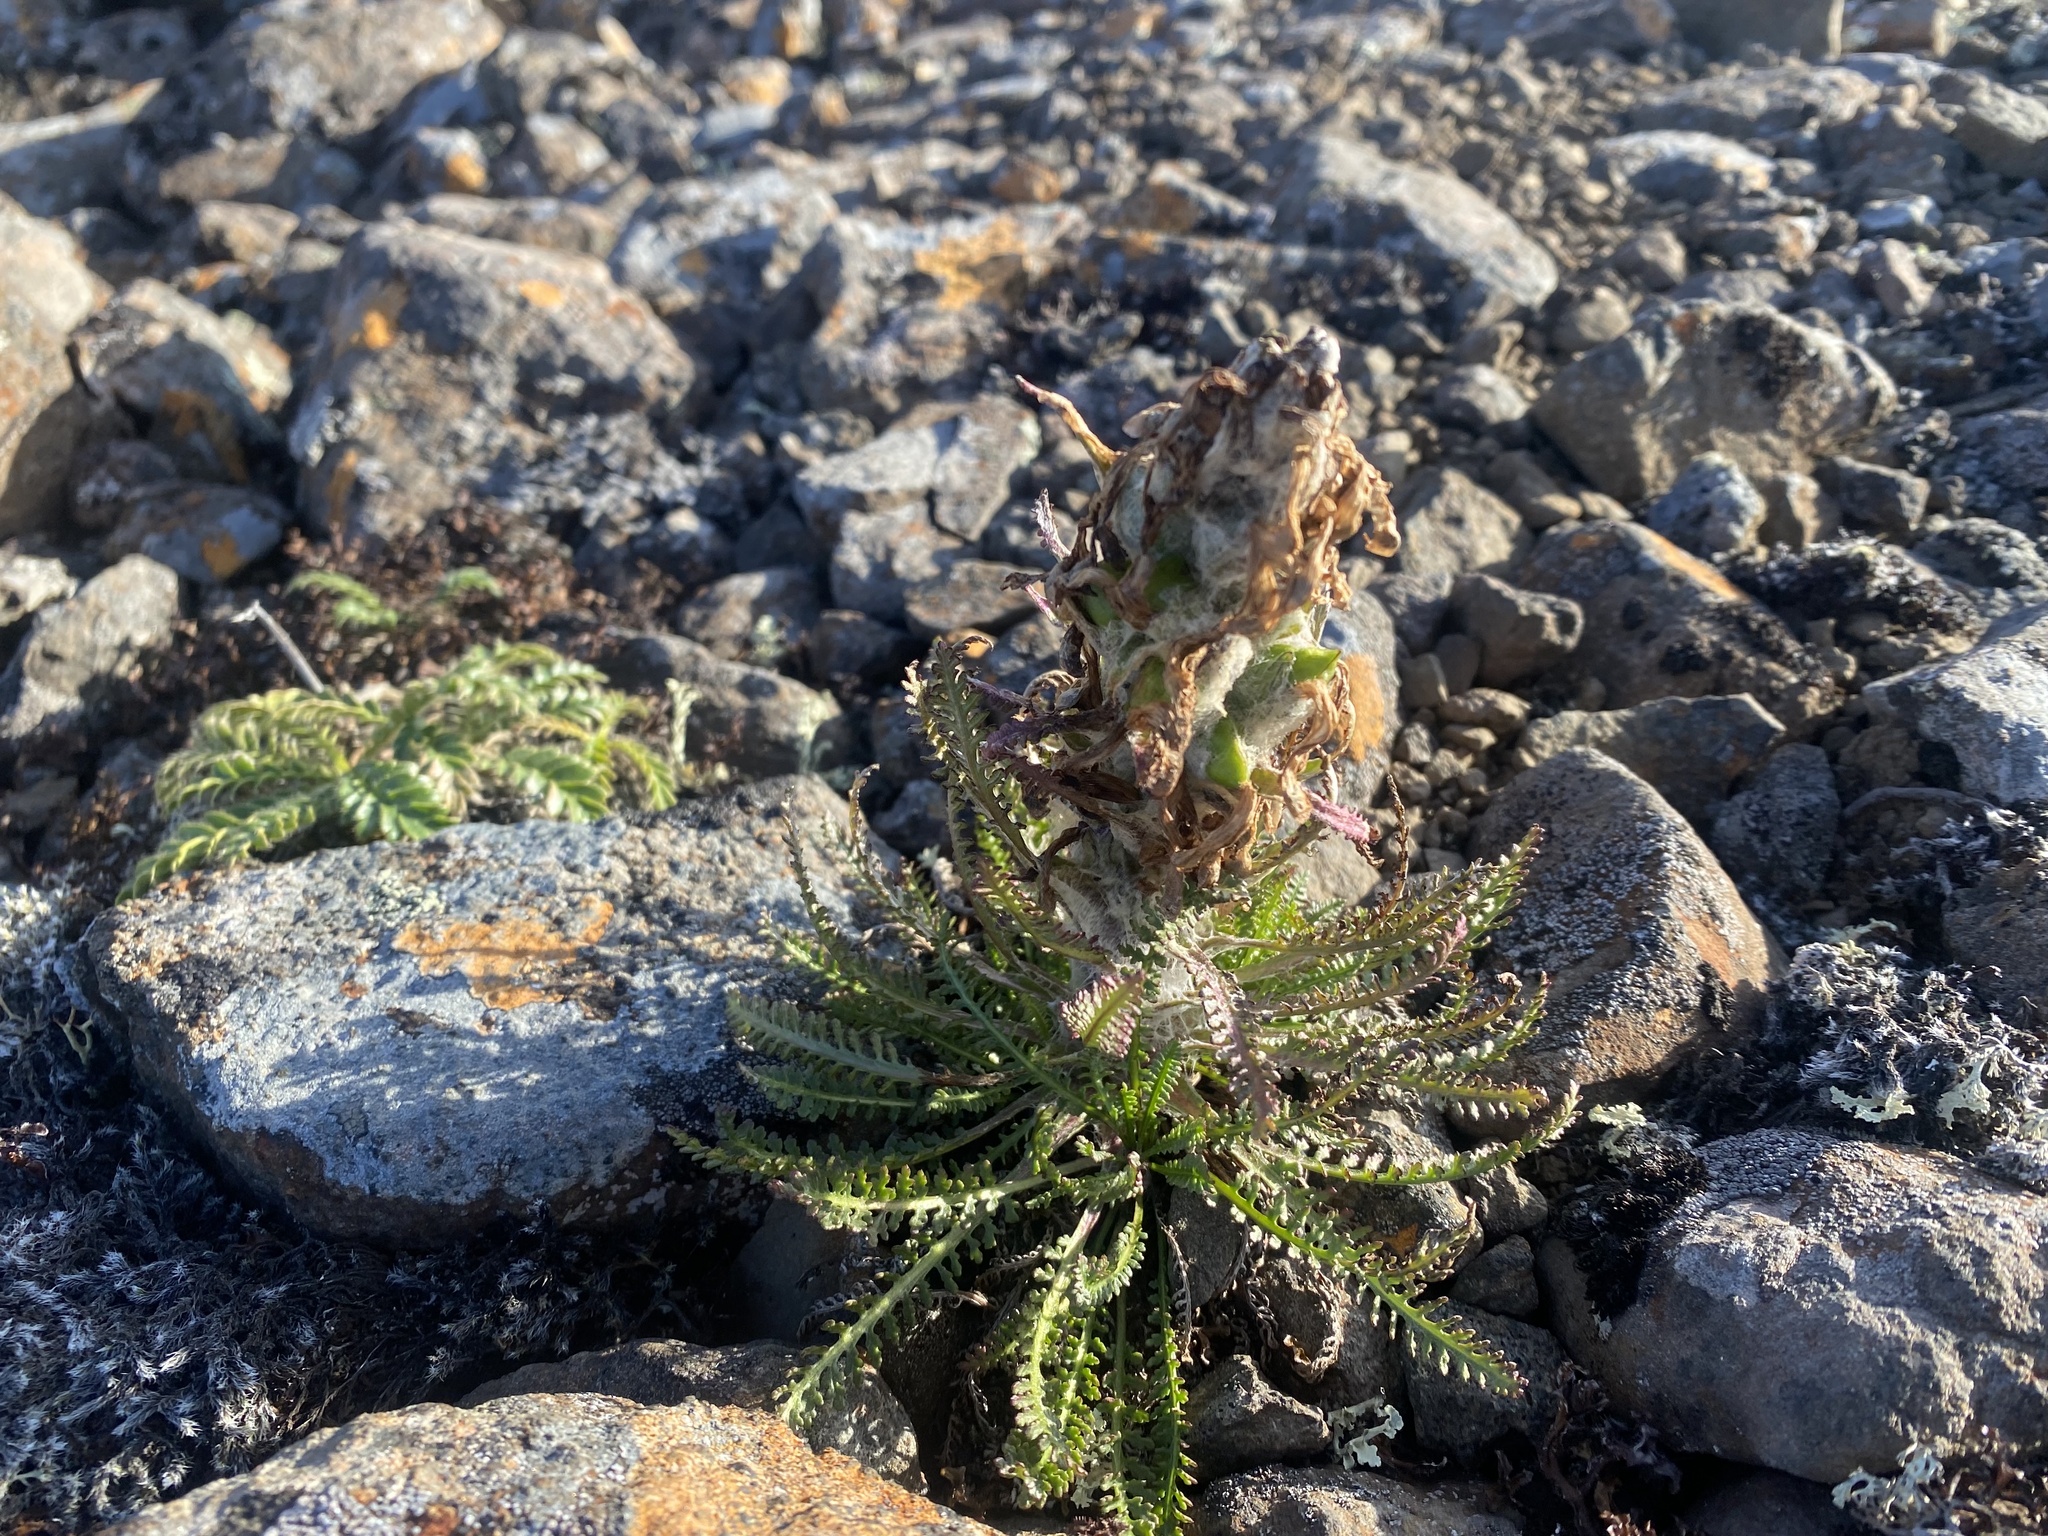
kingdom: Plantae
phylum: Tracheophyta
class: Magnoliopsida
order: Lamiales
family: Orobanchaceae
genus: Pedicularis
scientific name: Pedicularis alopecuroides
